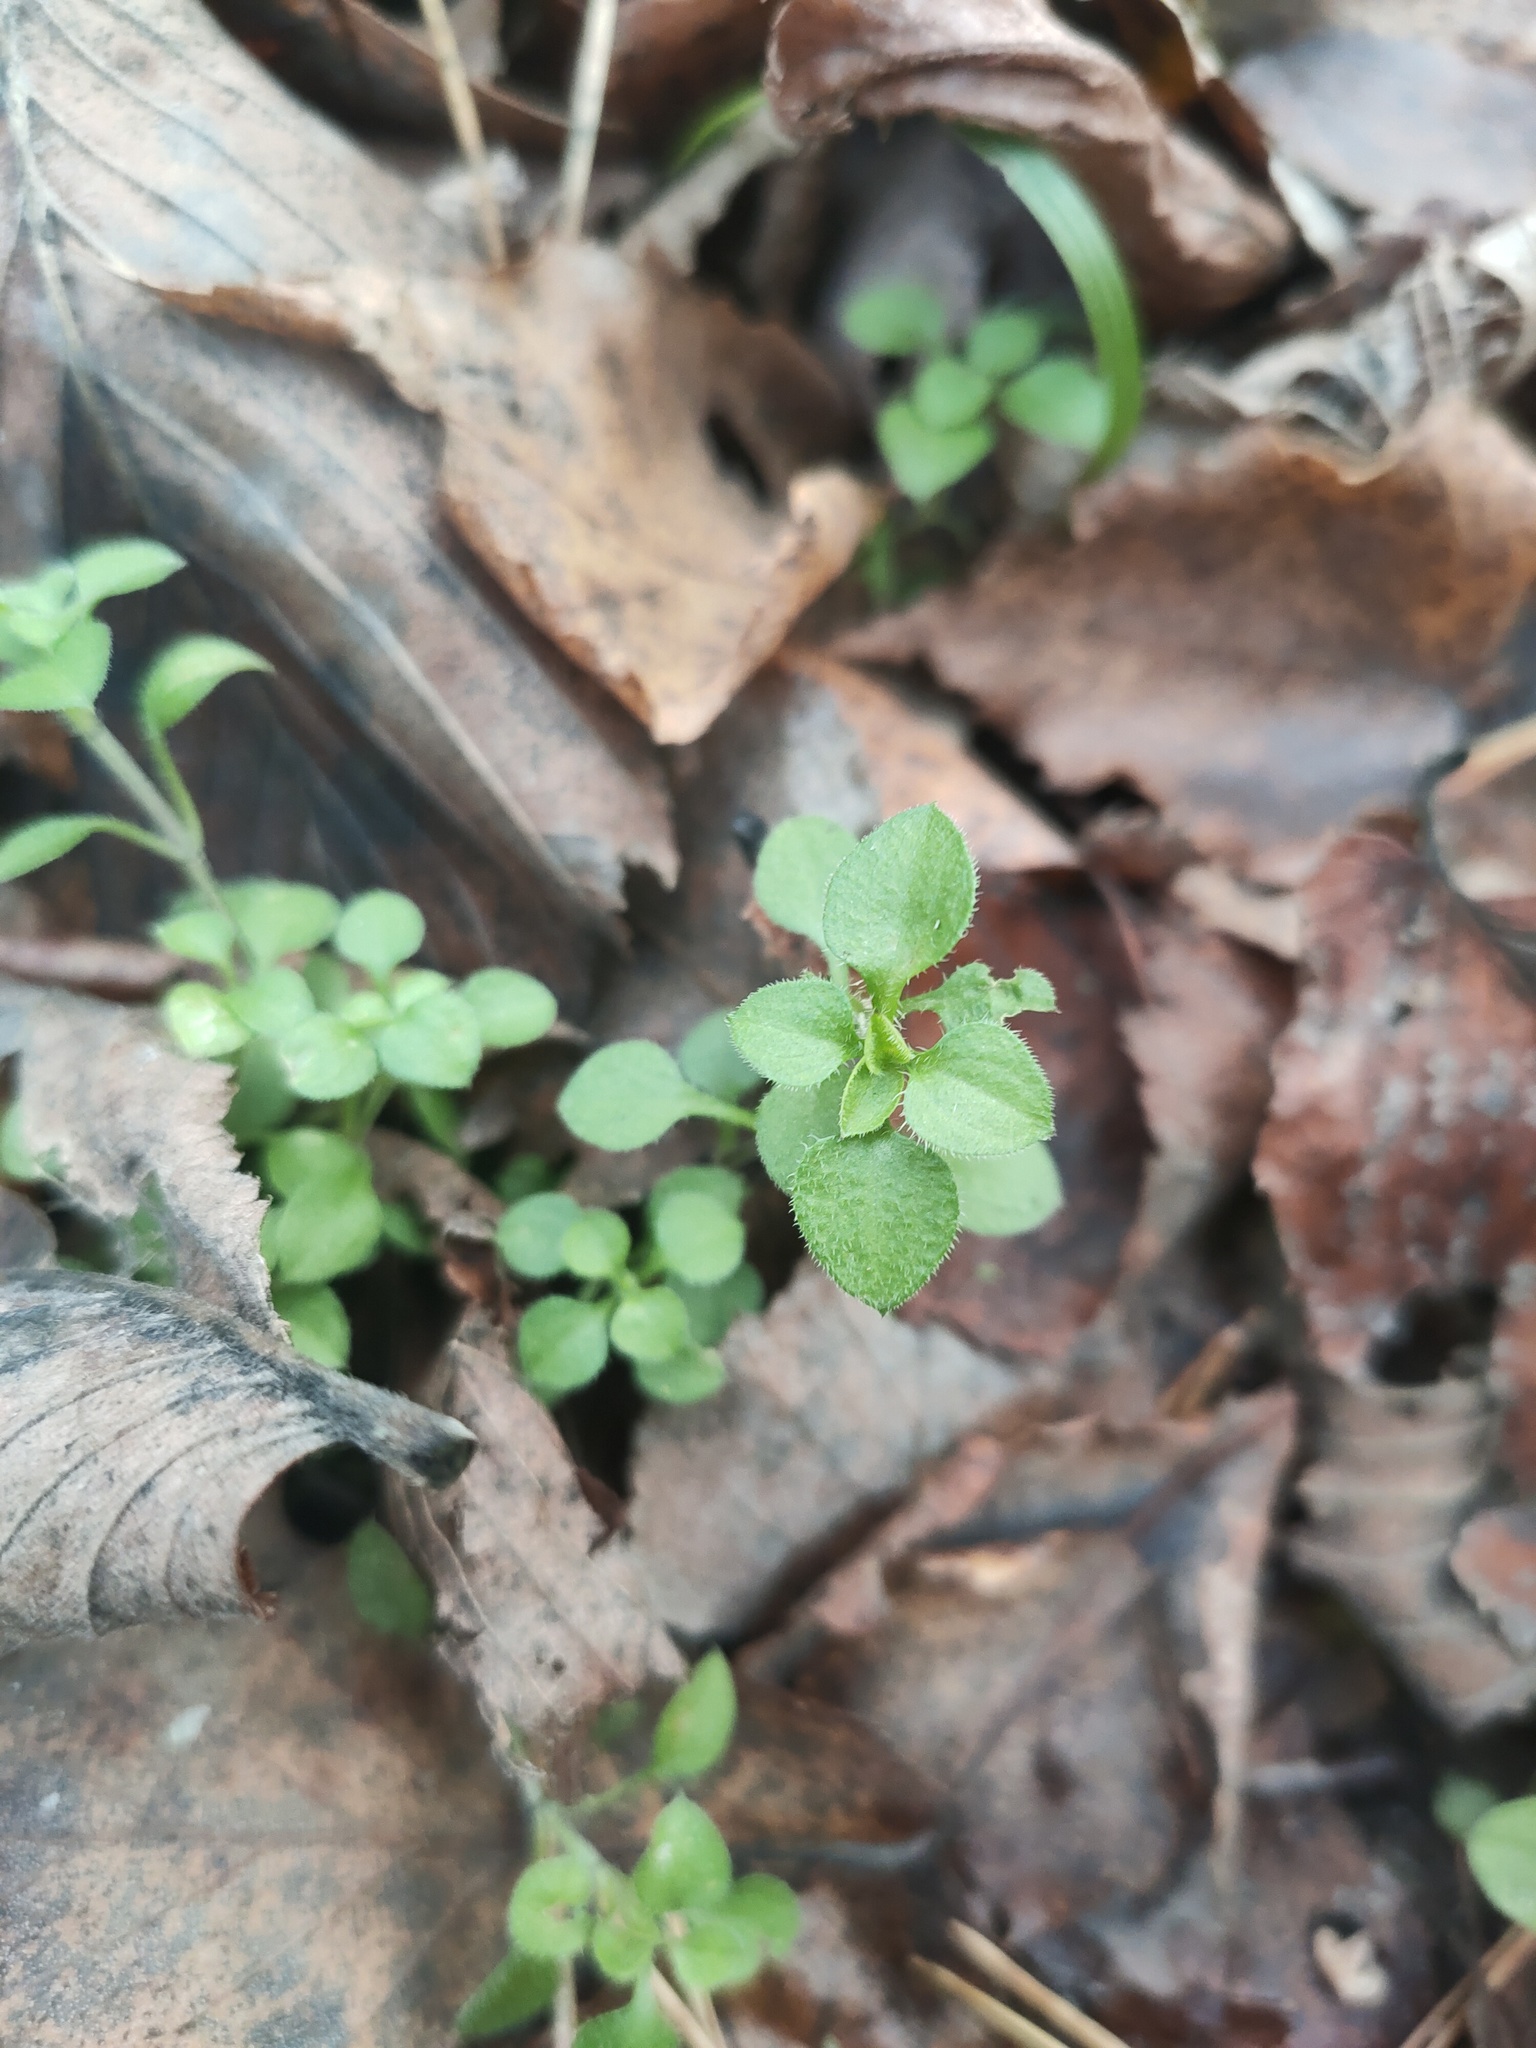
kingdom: Plantae
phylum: Tracheophyta
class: Magnoliopsida
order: Caryophyllales
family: Caryophyllaceae
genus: Moehringia
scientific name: Moehringia trinervia
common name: Three-nerved sandwort
